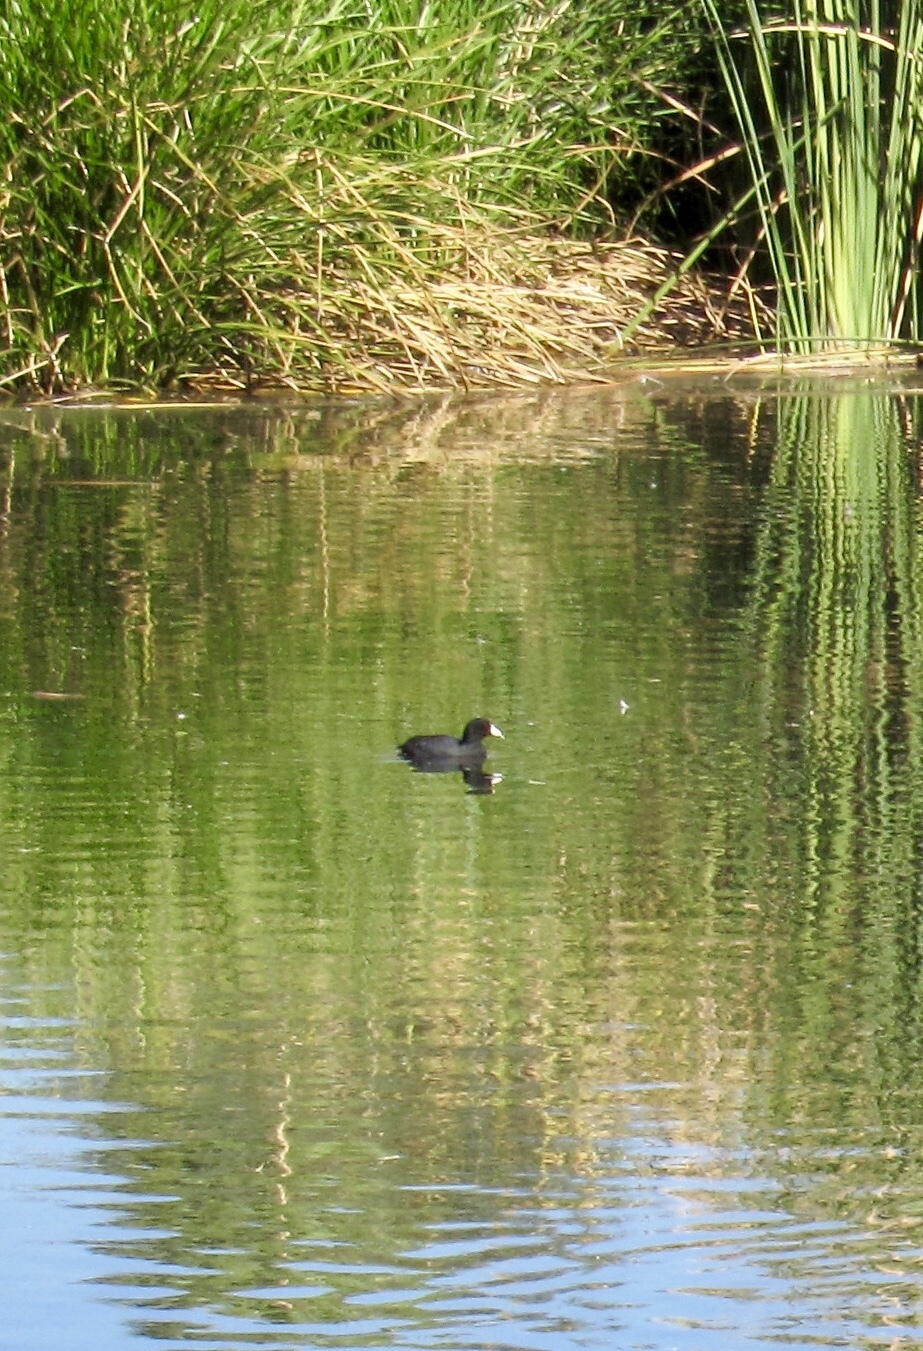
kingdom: Animalia
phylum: Chordata
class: Aves
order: Gruiformes
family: Rallidae
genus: Fulica
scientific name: Fulica americana
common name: American coot
